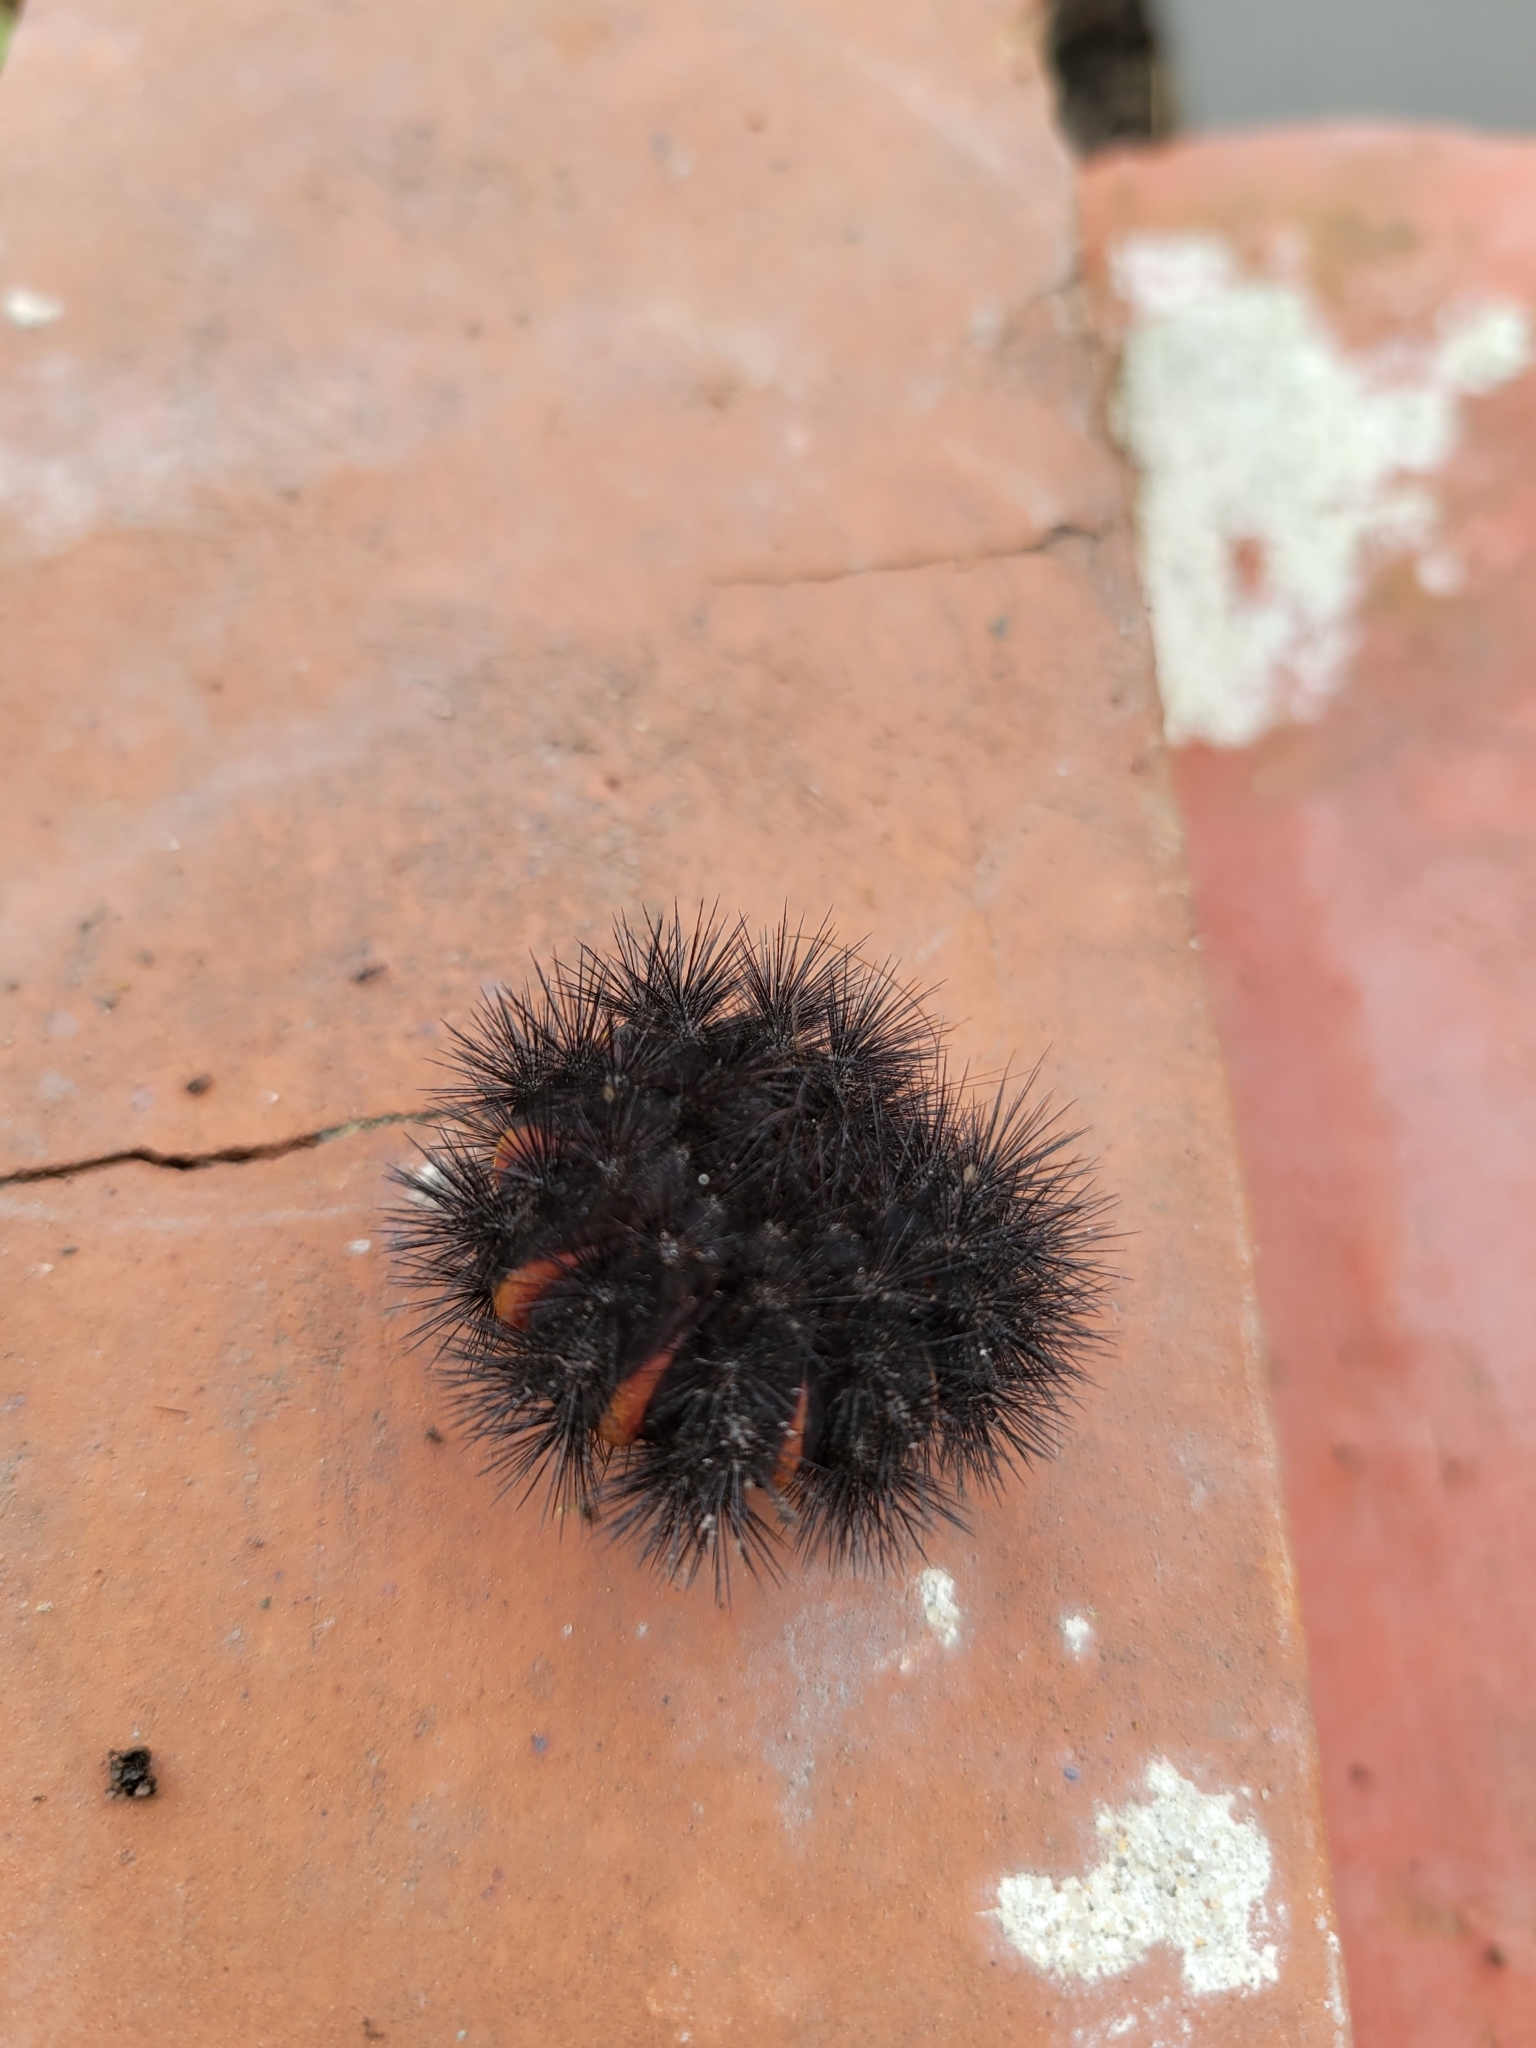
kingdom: Animalia
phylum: Arthropoda
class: Insecta
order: Lepidoptera
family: Erebidae
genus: Hypercompe
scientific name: Hypercompe scribonia
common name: Giant leopard moth
